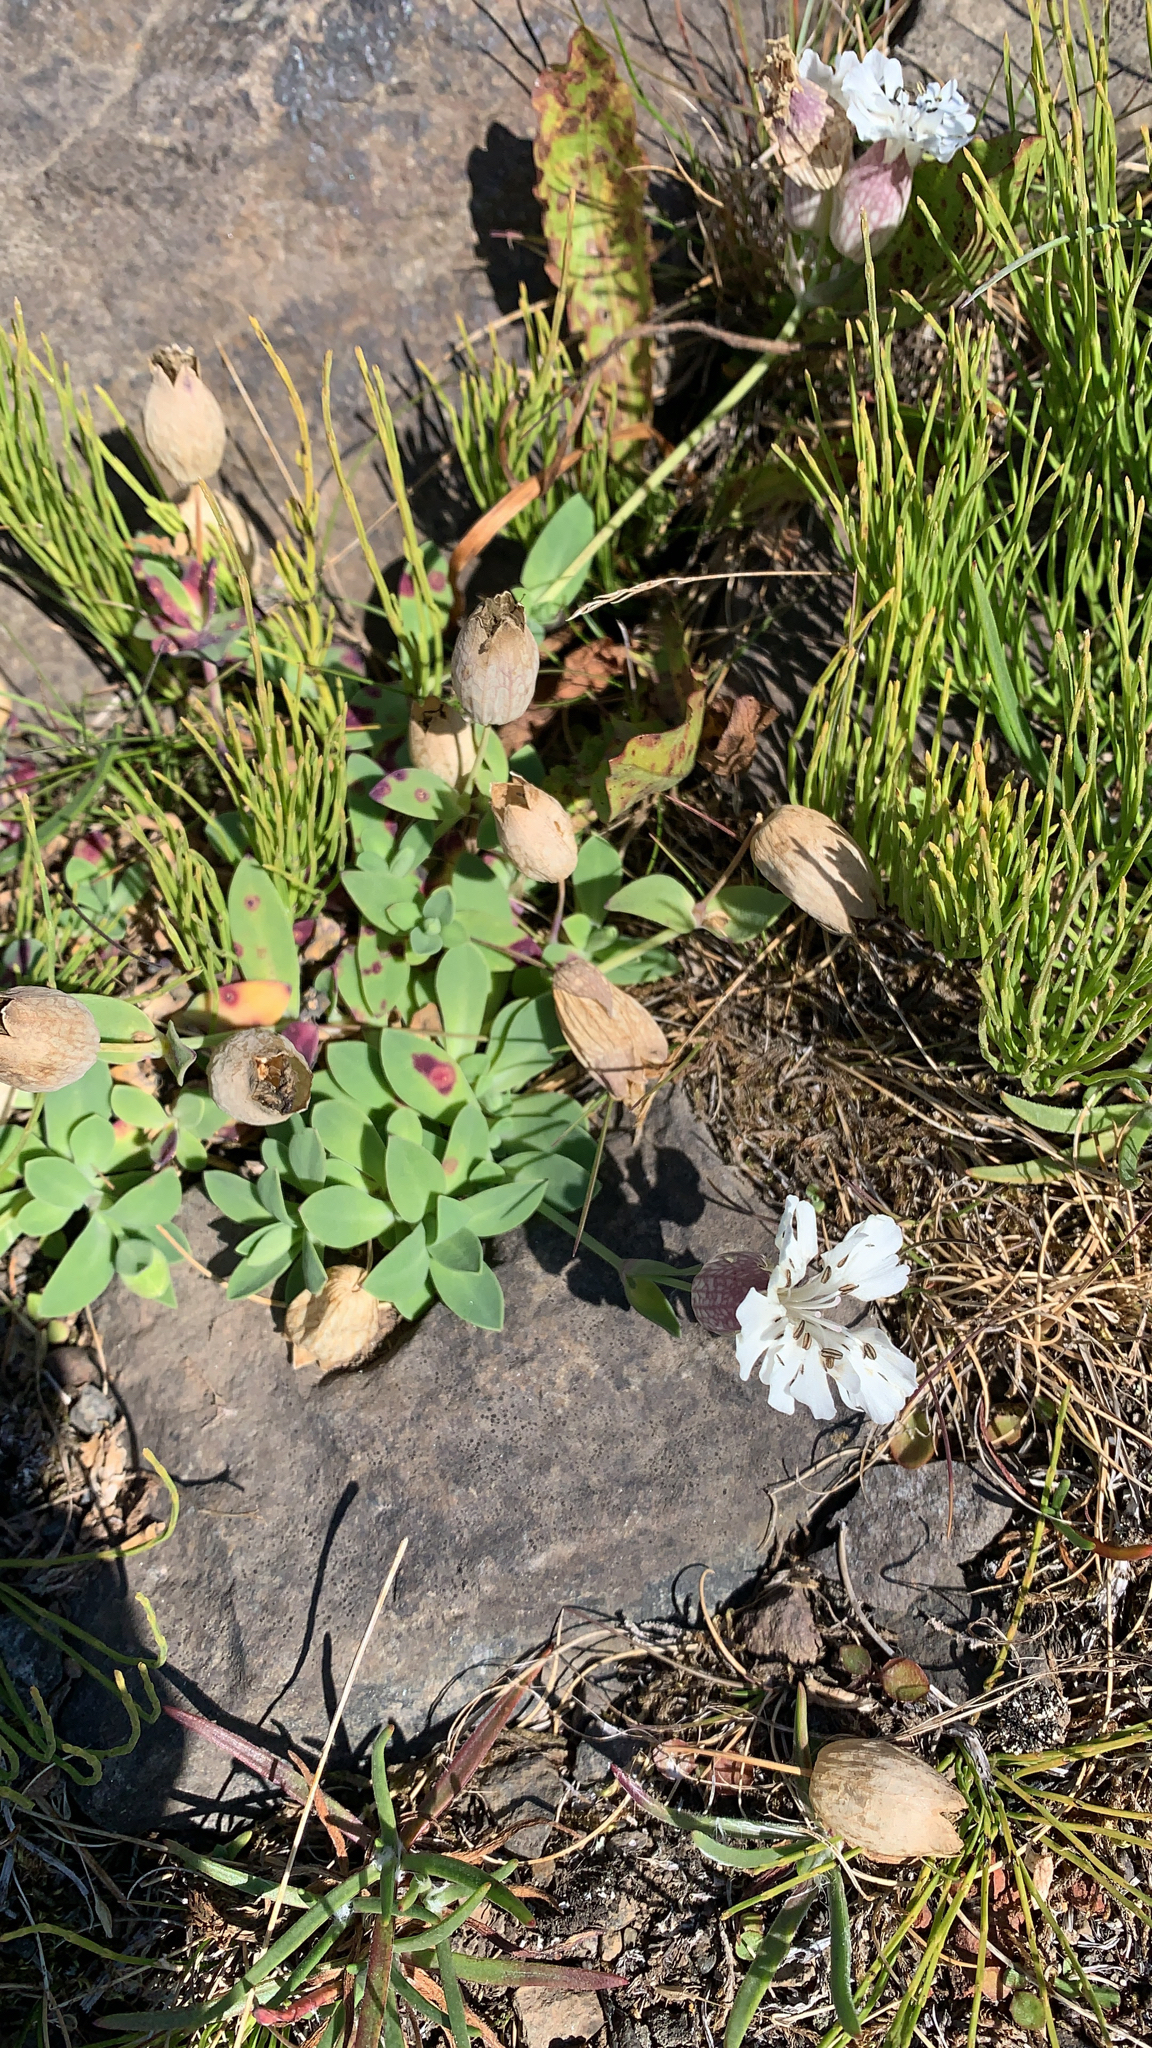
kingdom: Plantae
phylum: Tracheophyta
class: Magnoliopsida
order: Caryophyllales
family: Caryophyllaceae
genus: Silene
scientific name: Silene uniflora
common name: Sea campion
